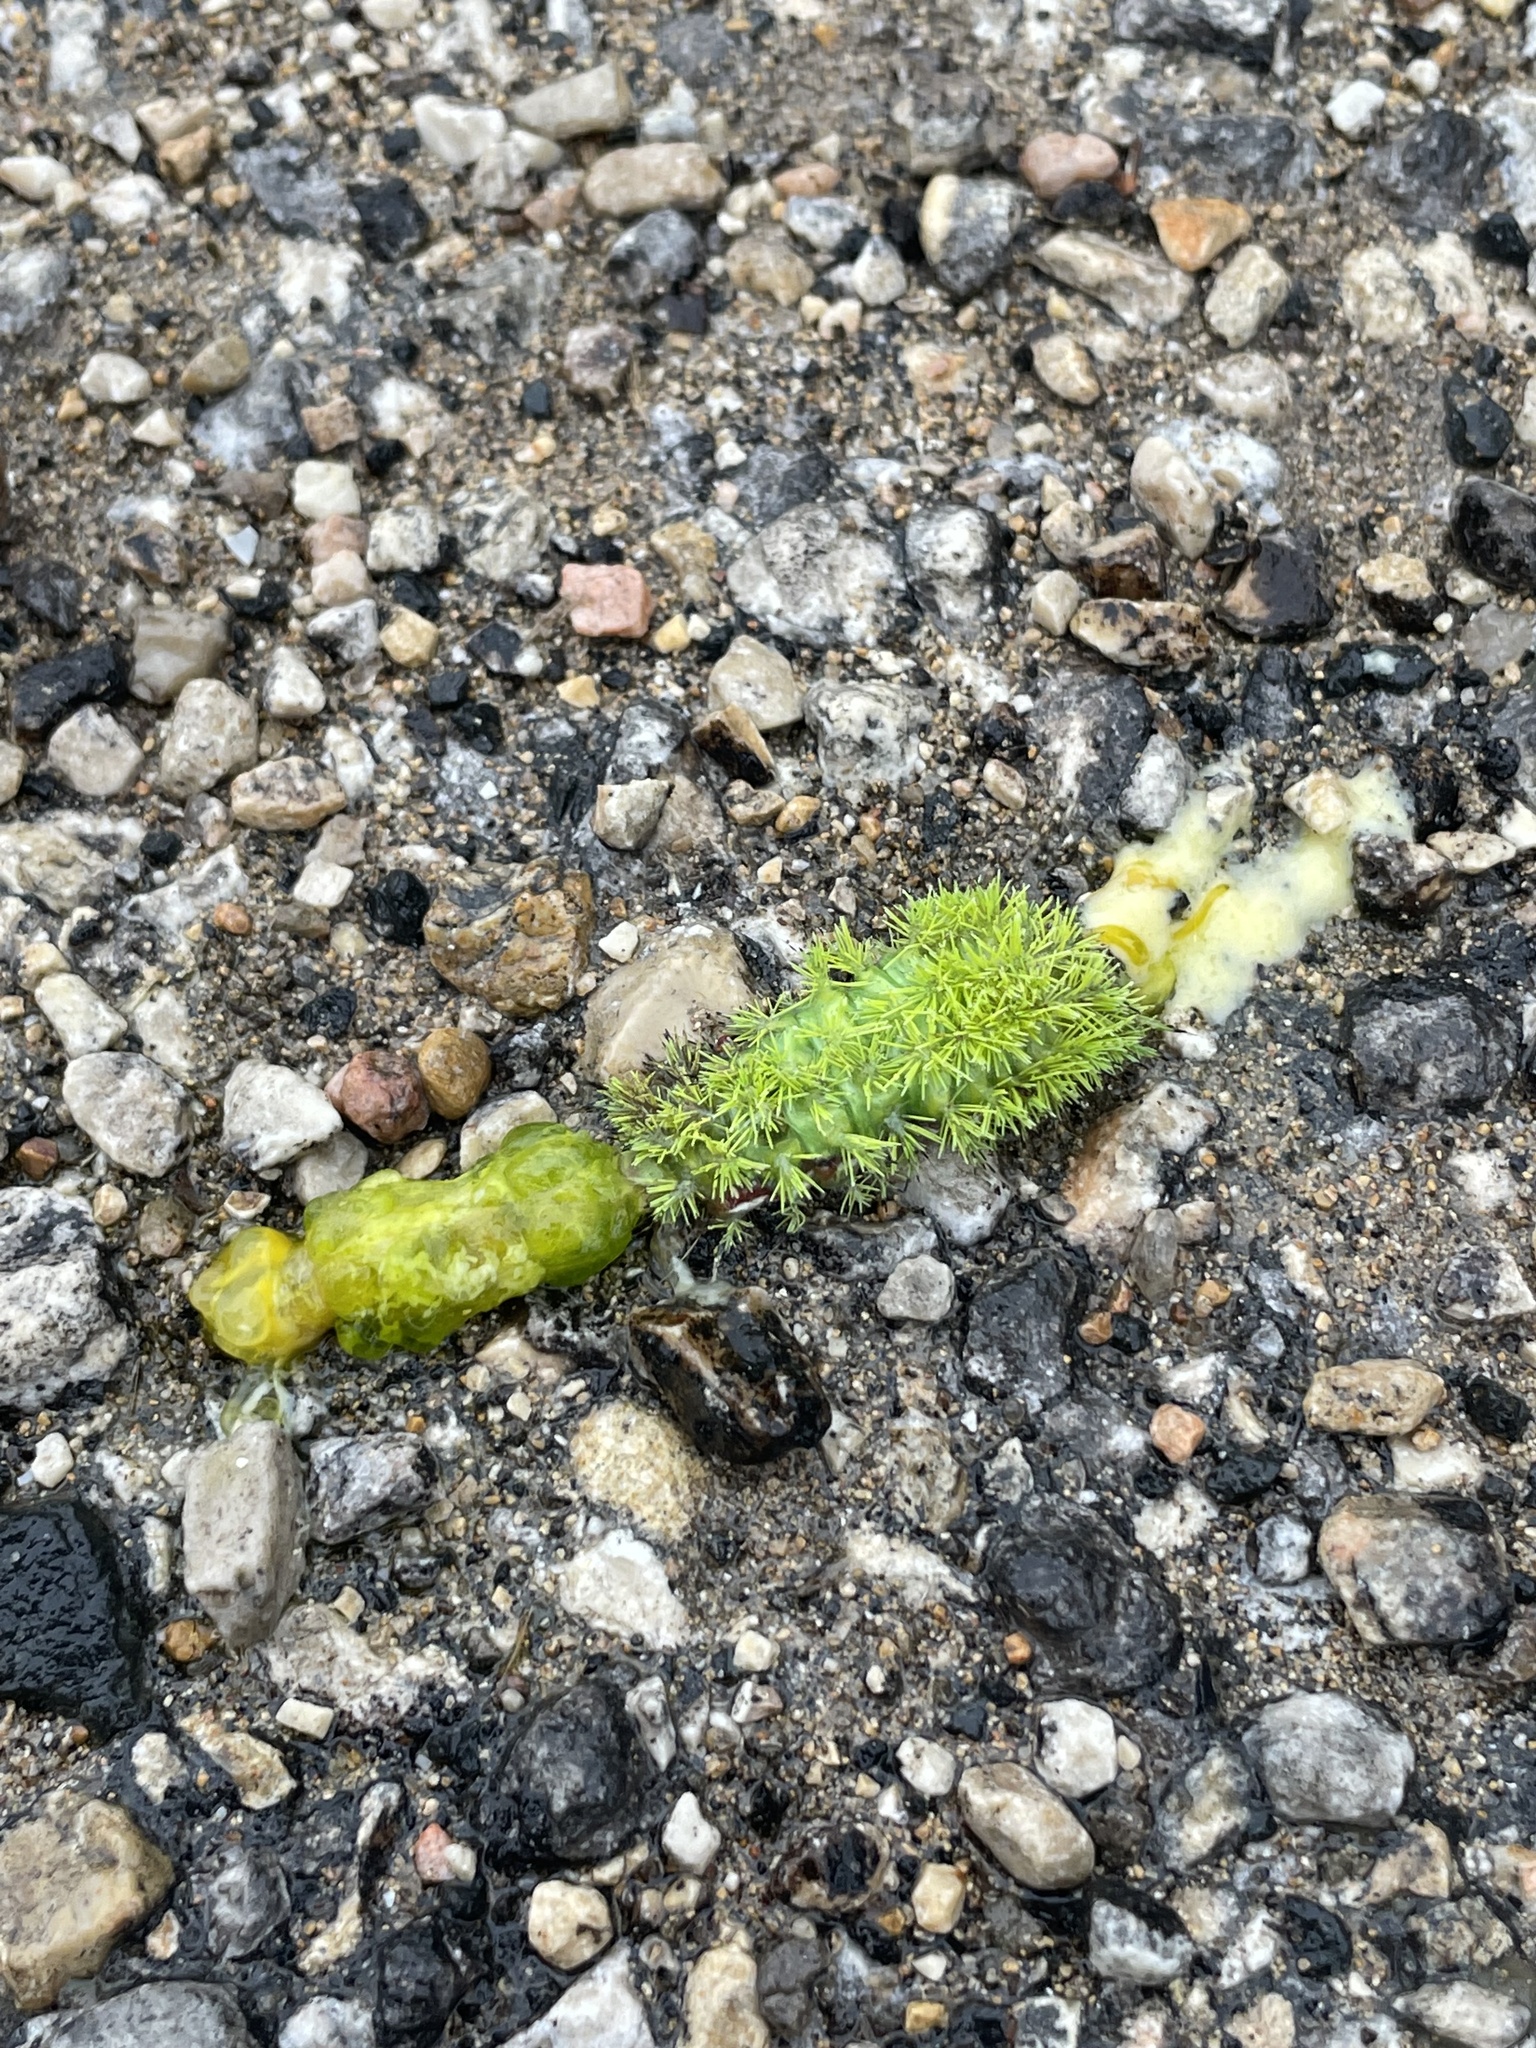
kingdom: Animalia
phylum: Arthropoda
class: Insecta
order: Lepidoptera
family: Saturniidae
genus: Automeris
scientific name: Automeris io
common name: Io moth
